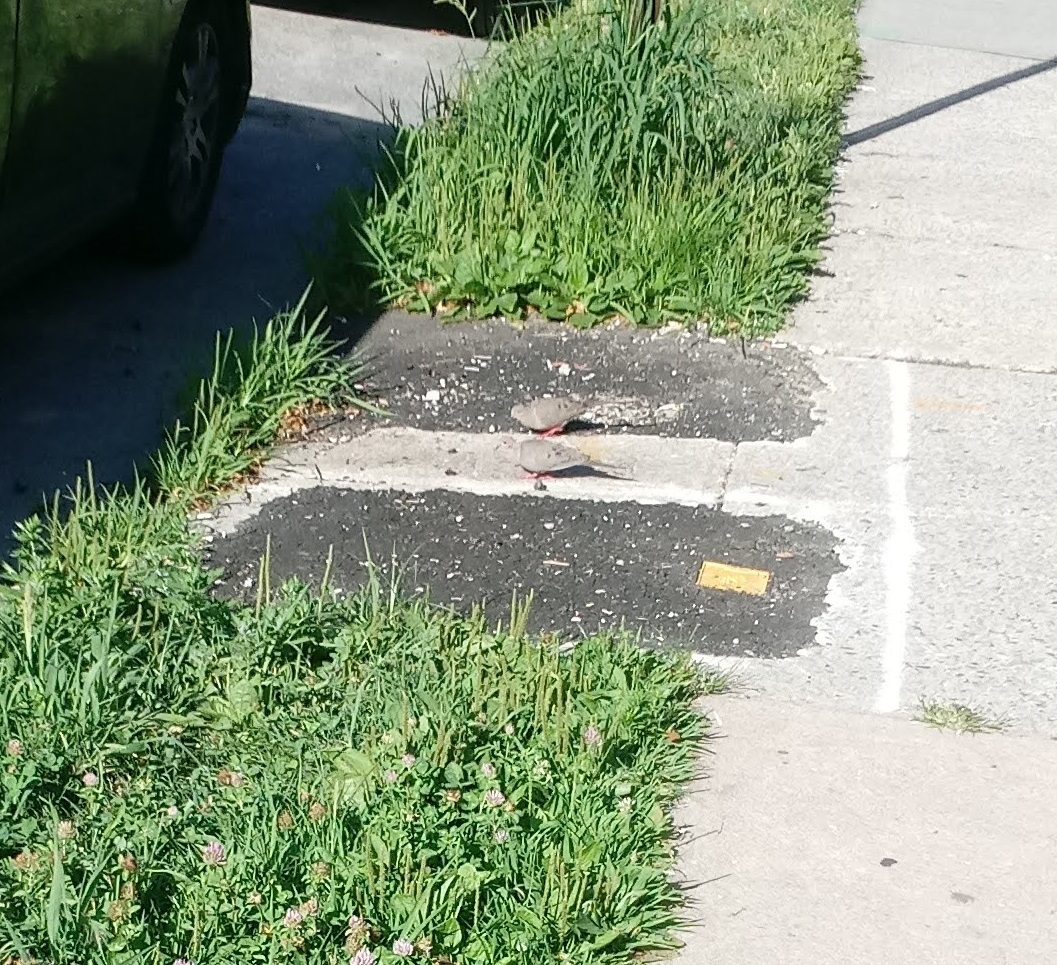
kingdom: Animalia
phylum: Chordata
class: Aves
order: Columbiformes
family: Columbidae
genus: Zenaida
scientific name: Zenaida macroura
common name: Mourning dove
